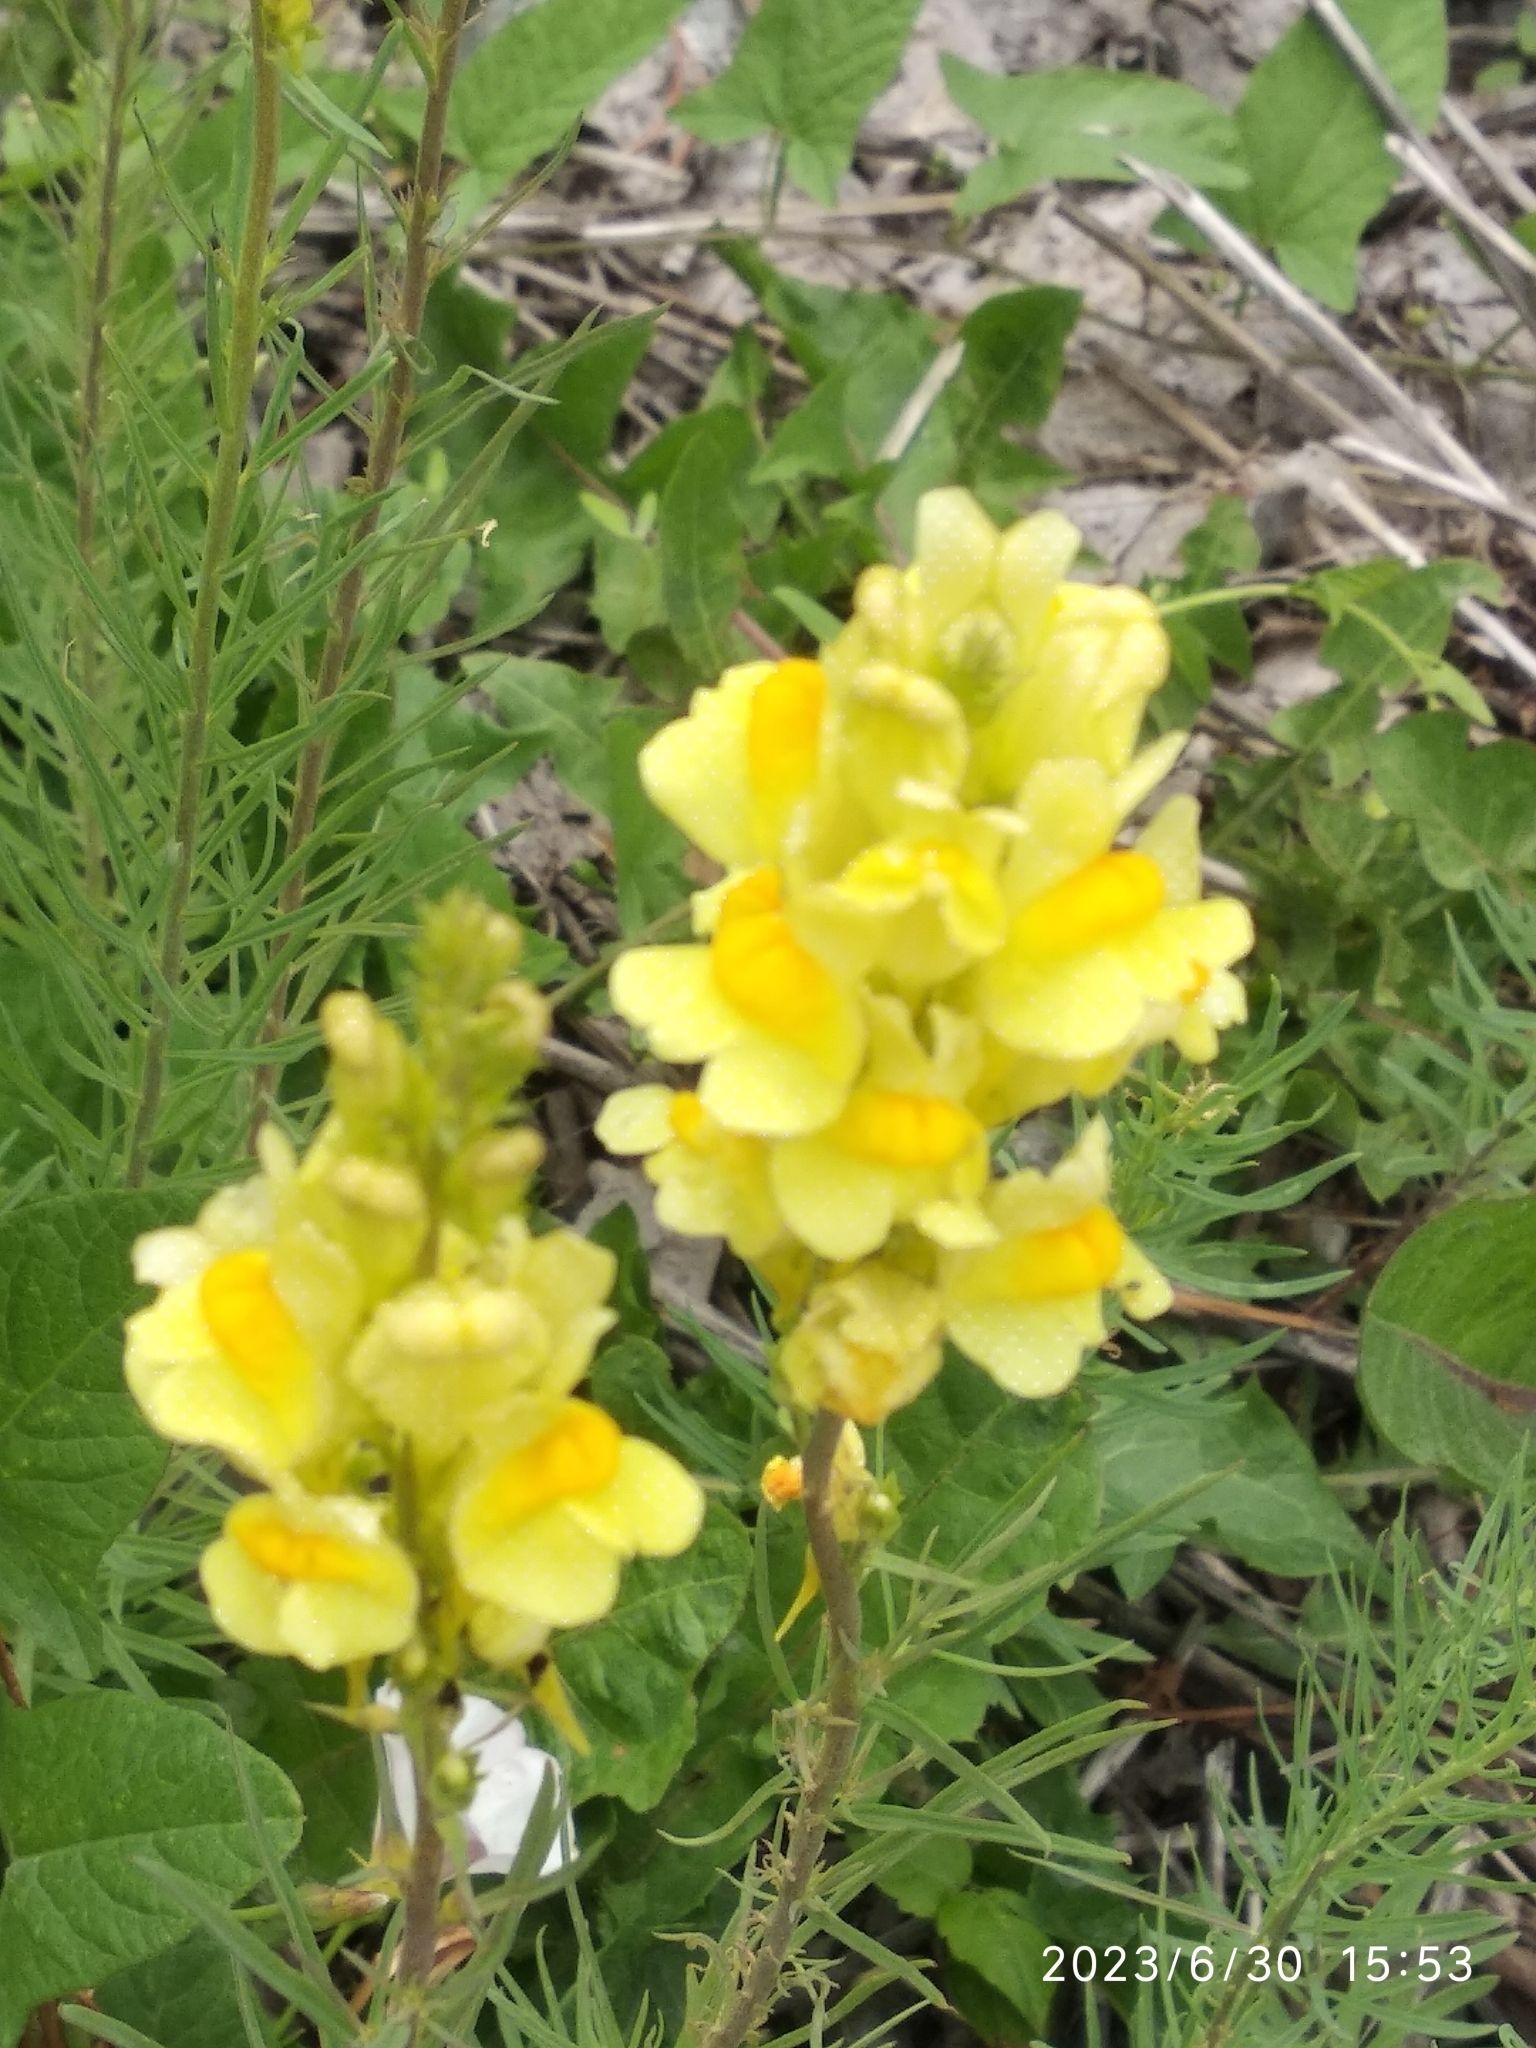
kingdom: Plantae
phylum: Tracheophyta
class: Magnoliopsida
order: Lamiales
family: Plantaginaceae
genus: Linaria
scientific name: Linaria vulgaris
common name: Butter and eggs
